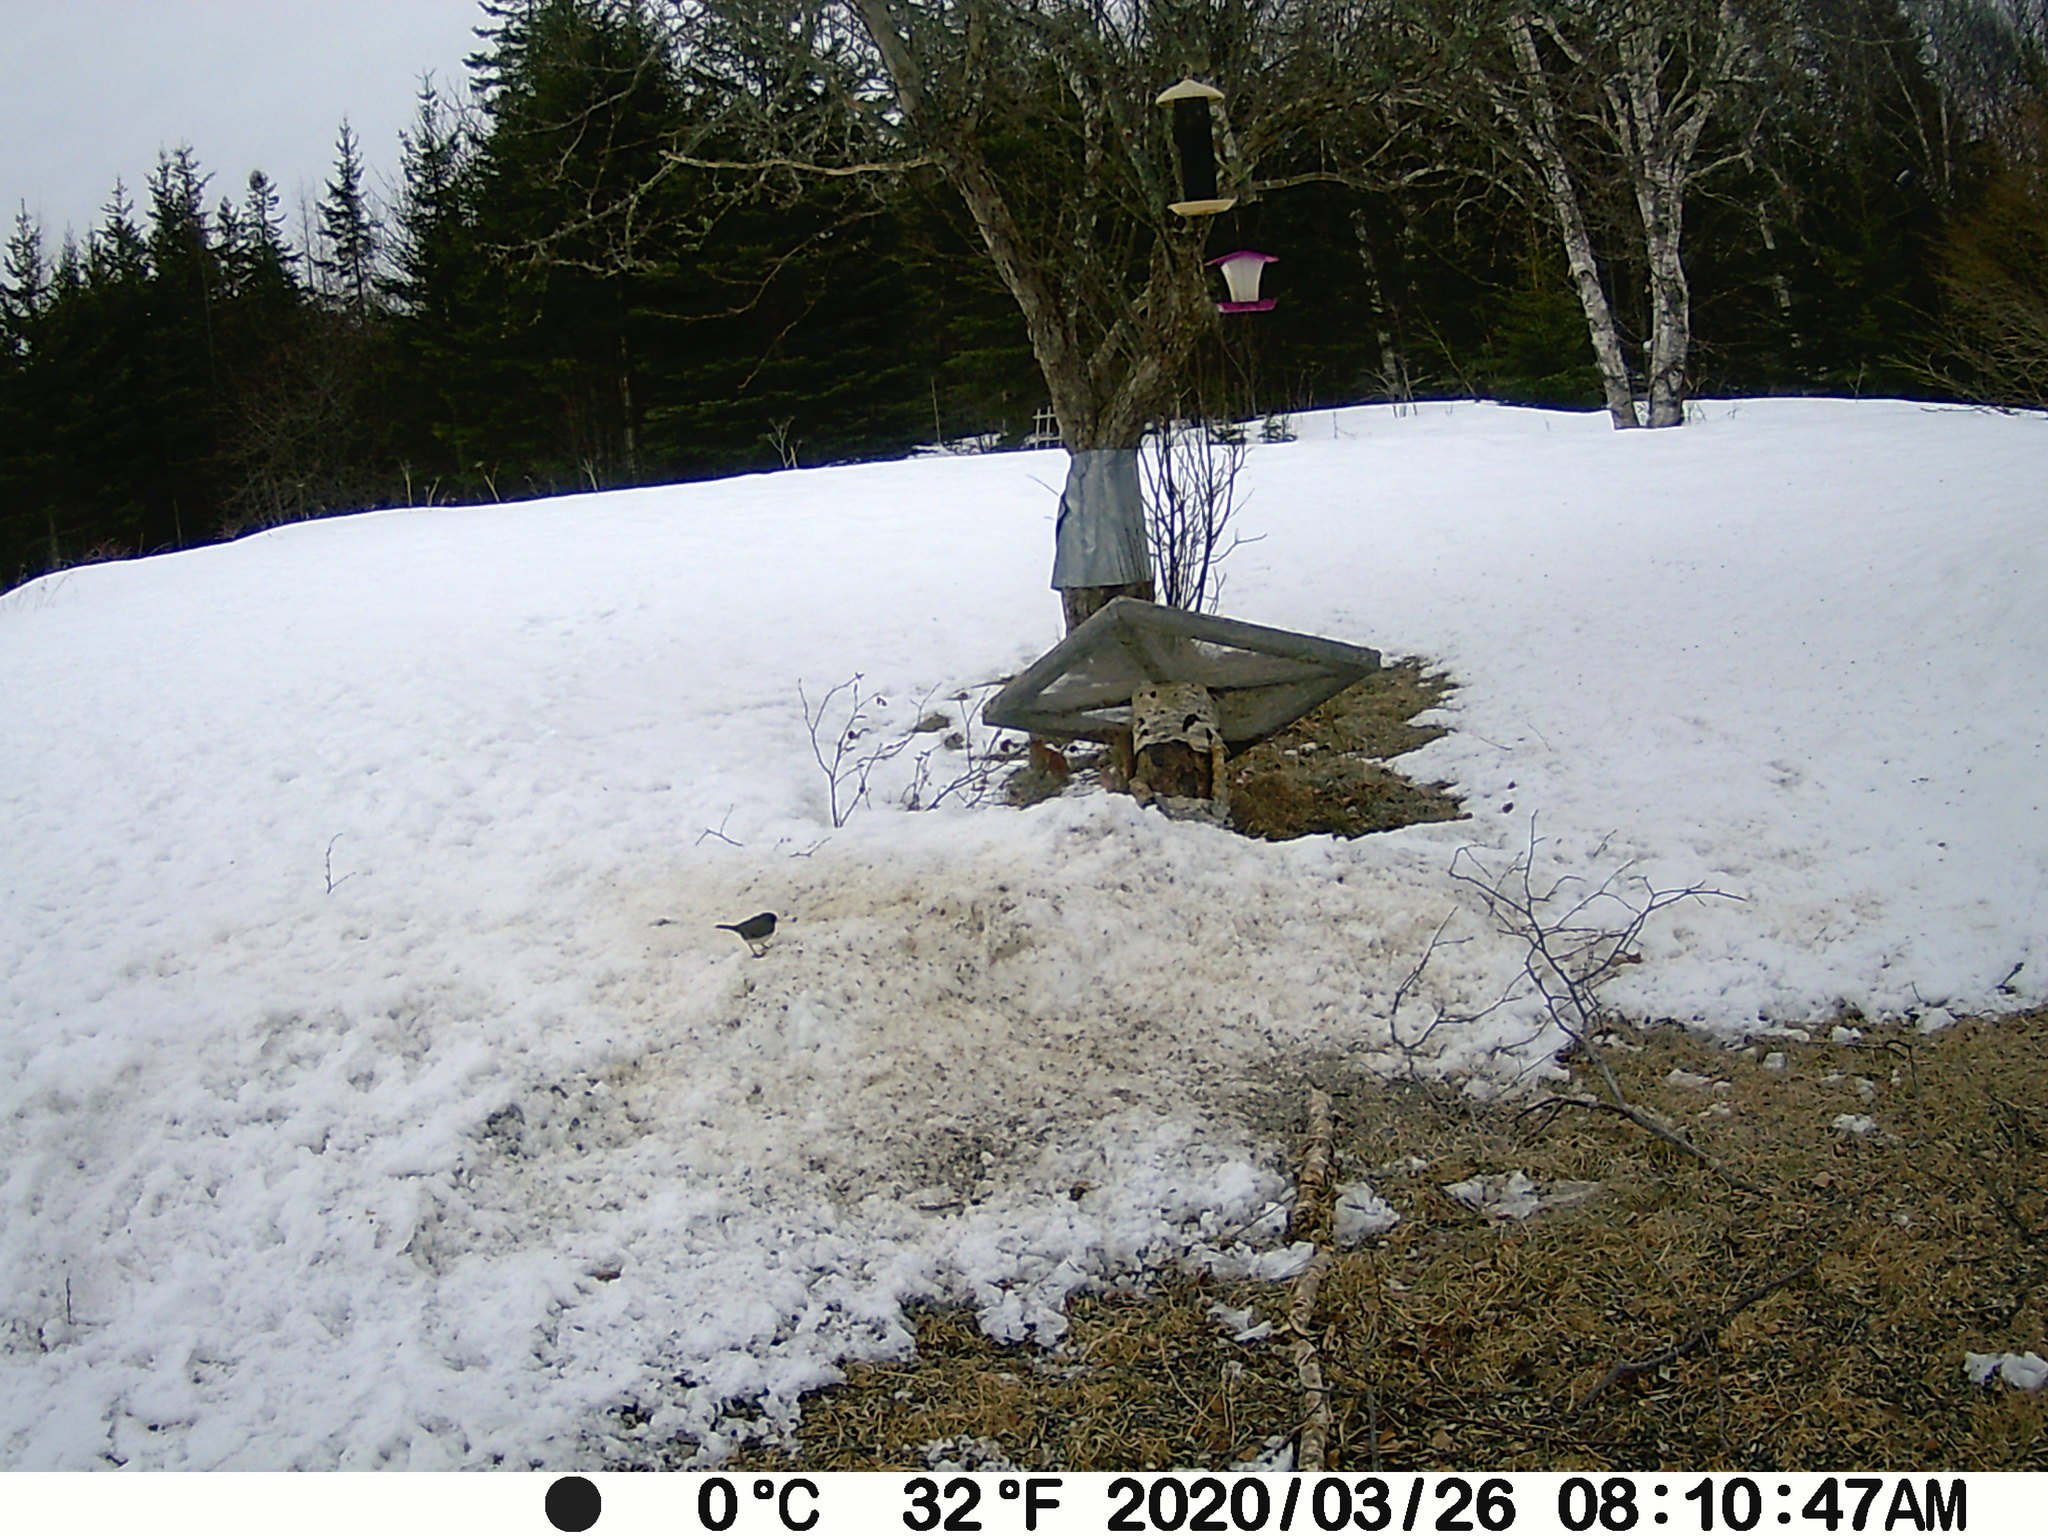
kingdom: Animalia
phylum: Chordata
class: Aves
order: Passeriformes
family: Passerellidae
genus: Junco
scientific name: Junco hyemalis
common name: Dark-eyed junco
